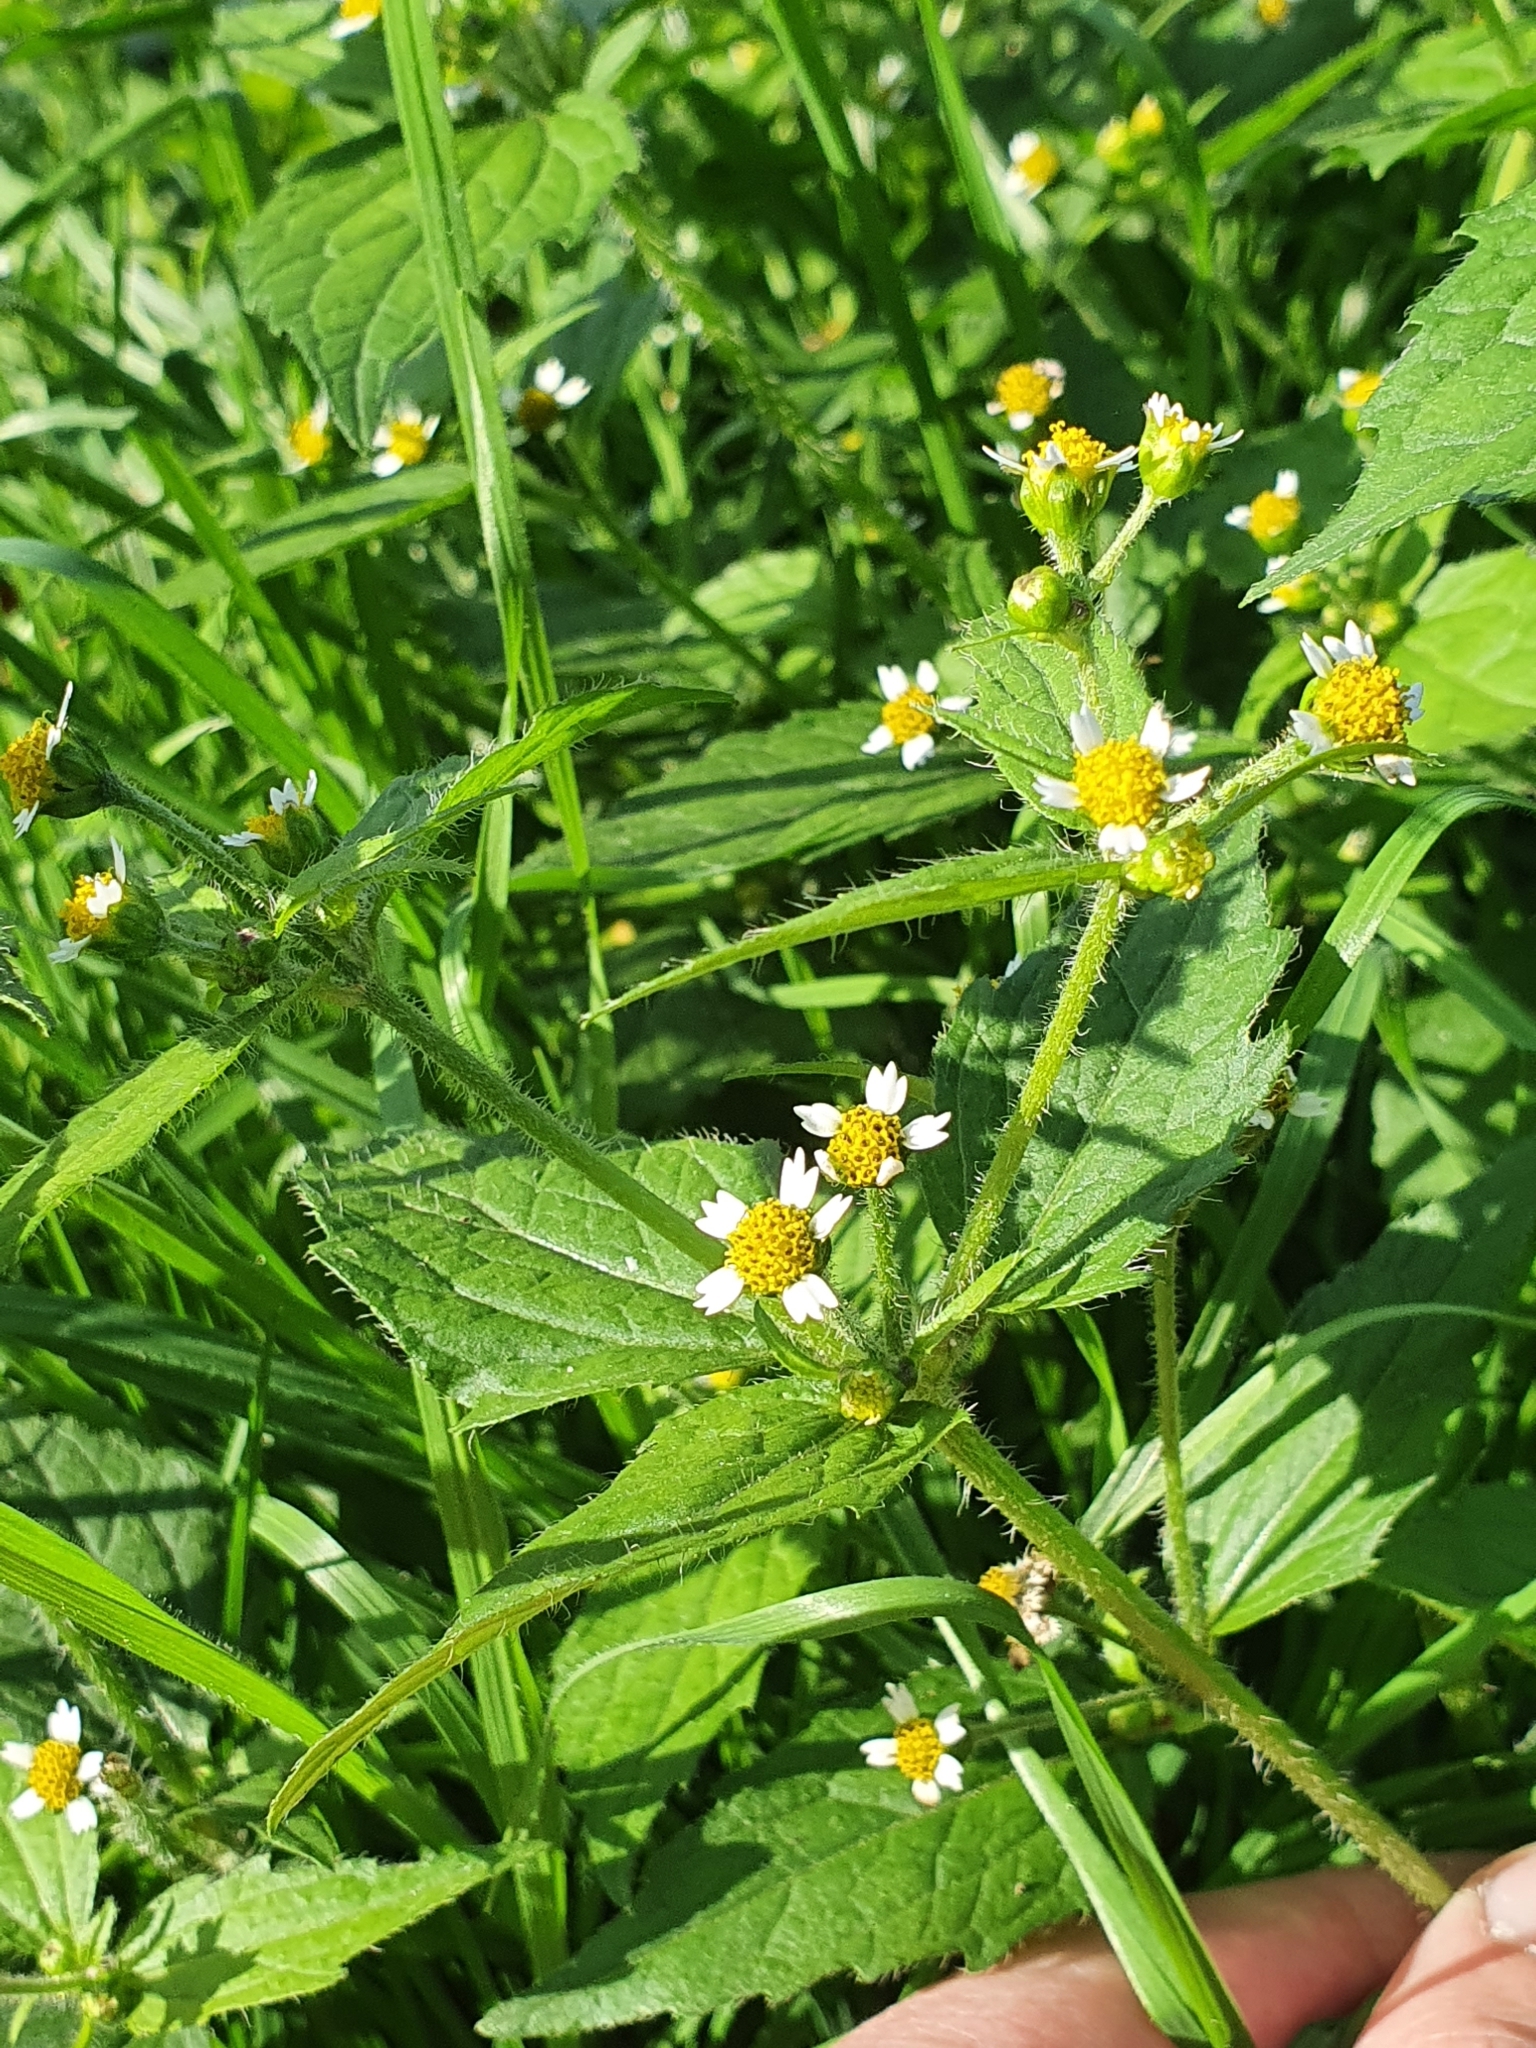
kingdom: Plantae
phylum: Tracheophyta
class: Magnoliopsida
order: Asterales
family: Asteraceae
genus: Galinsoga
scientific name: Galinsoga quadriradiata
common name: Shaggy soldier
